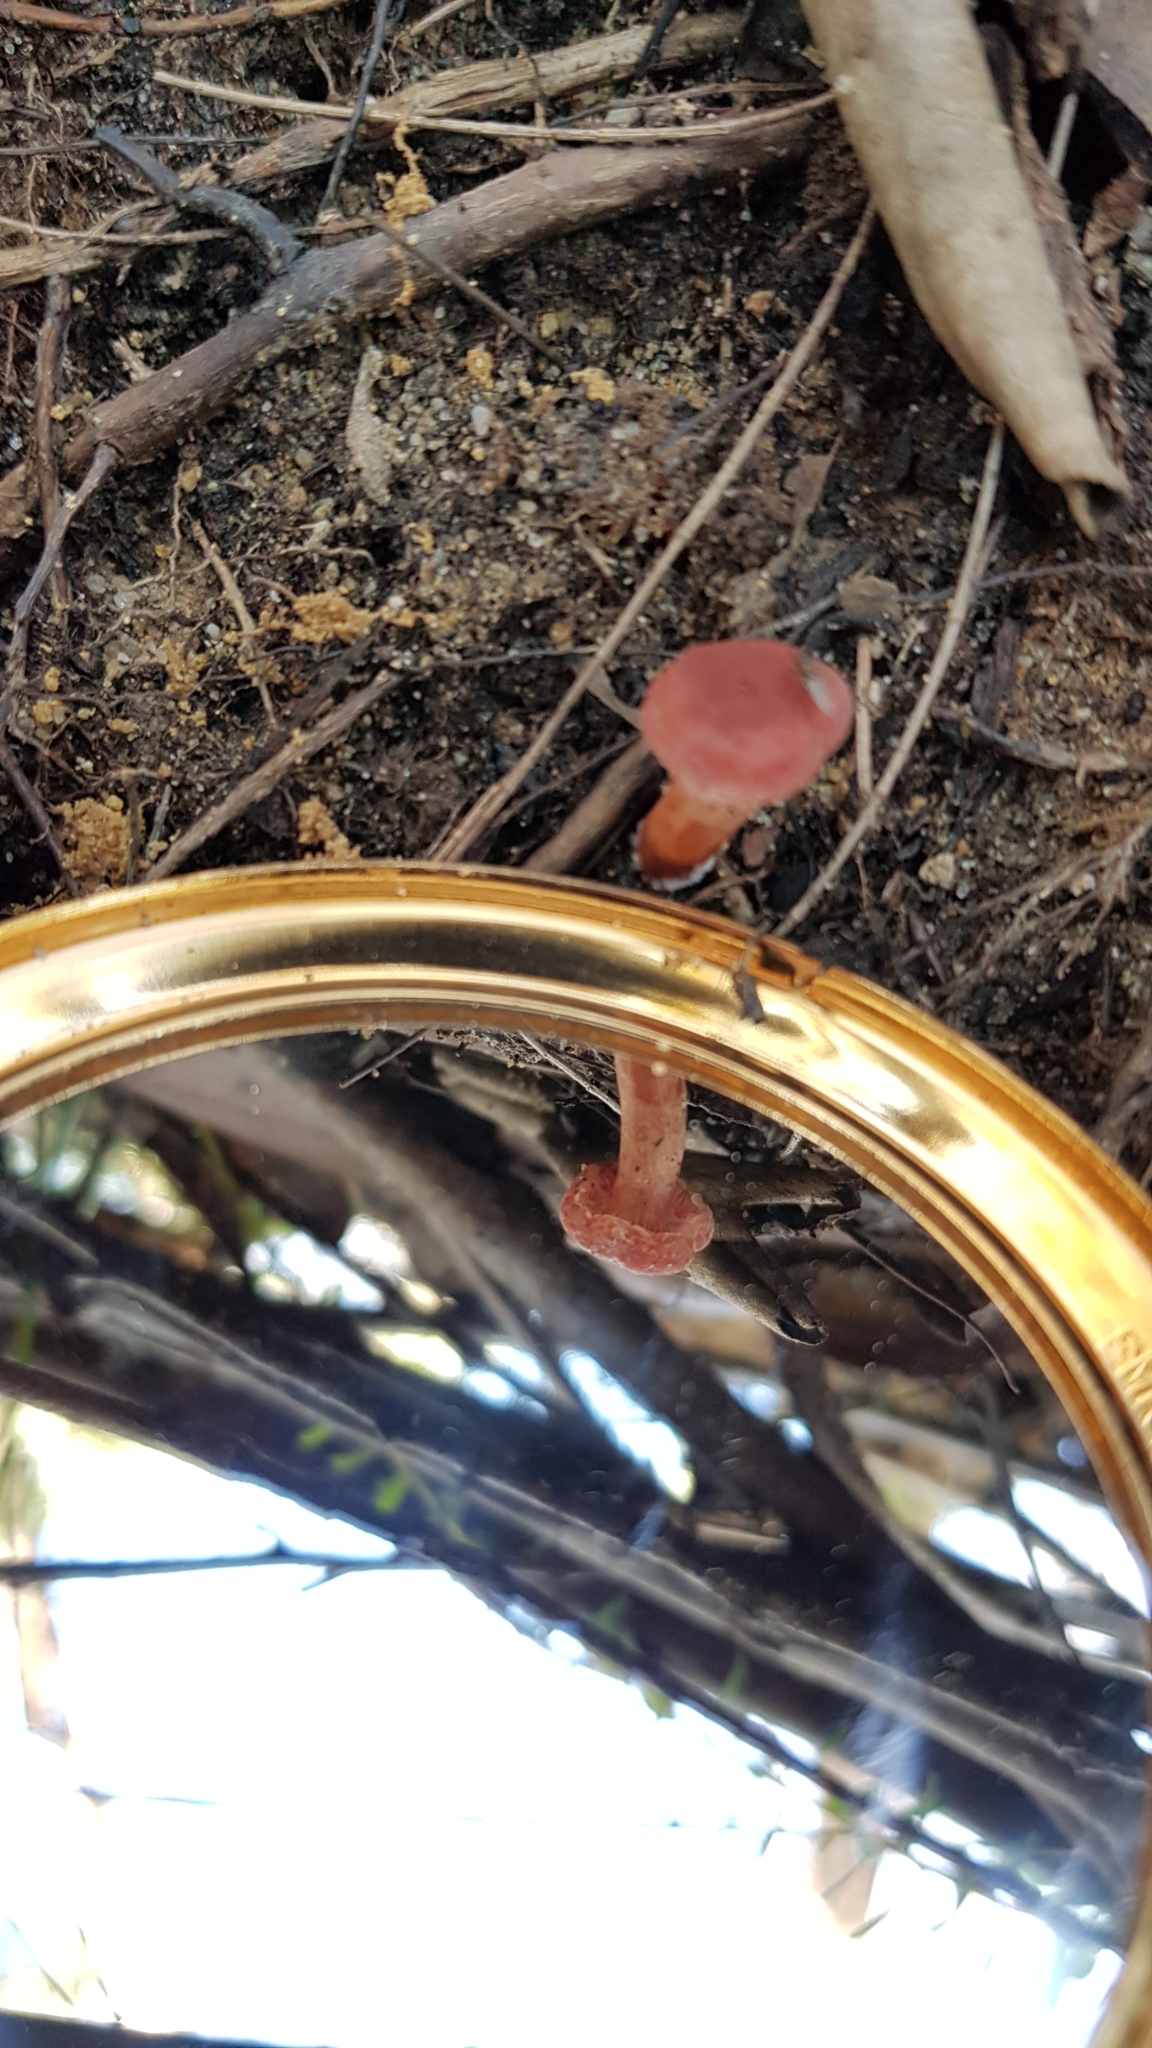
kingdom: Fungi
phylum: Basidiomycota
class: Agaricomycetes
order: Russulales
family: Russulaceae
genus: Lactarius
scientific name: Lactarius eucalypti
